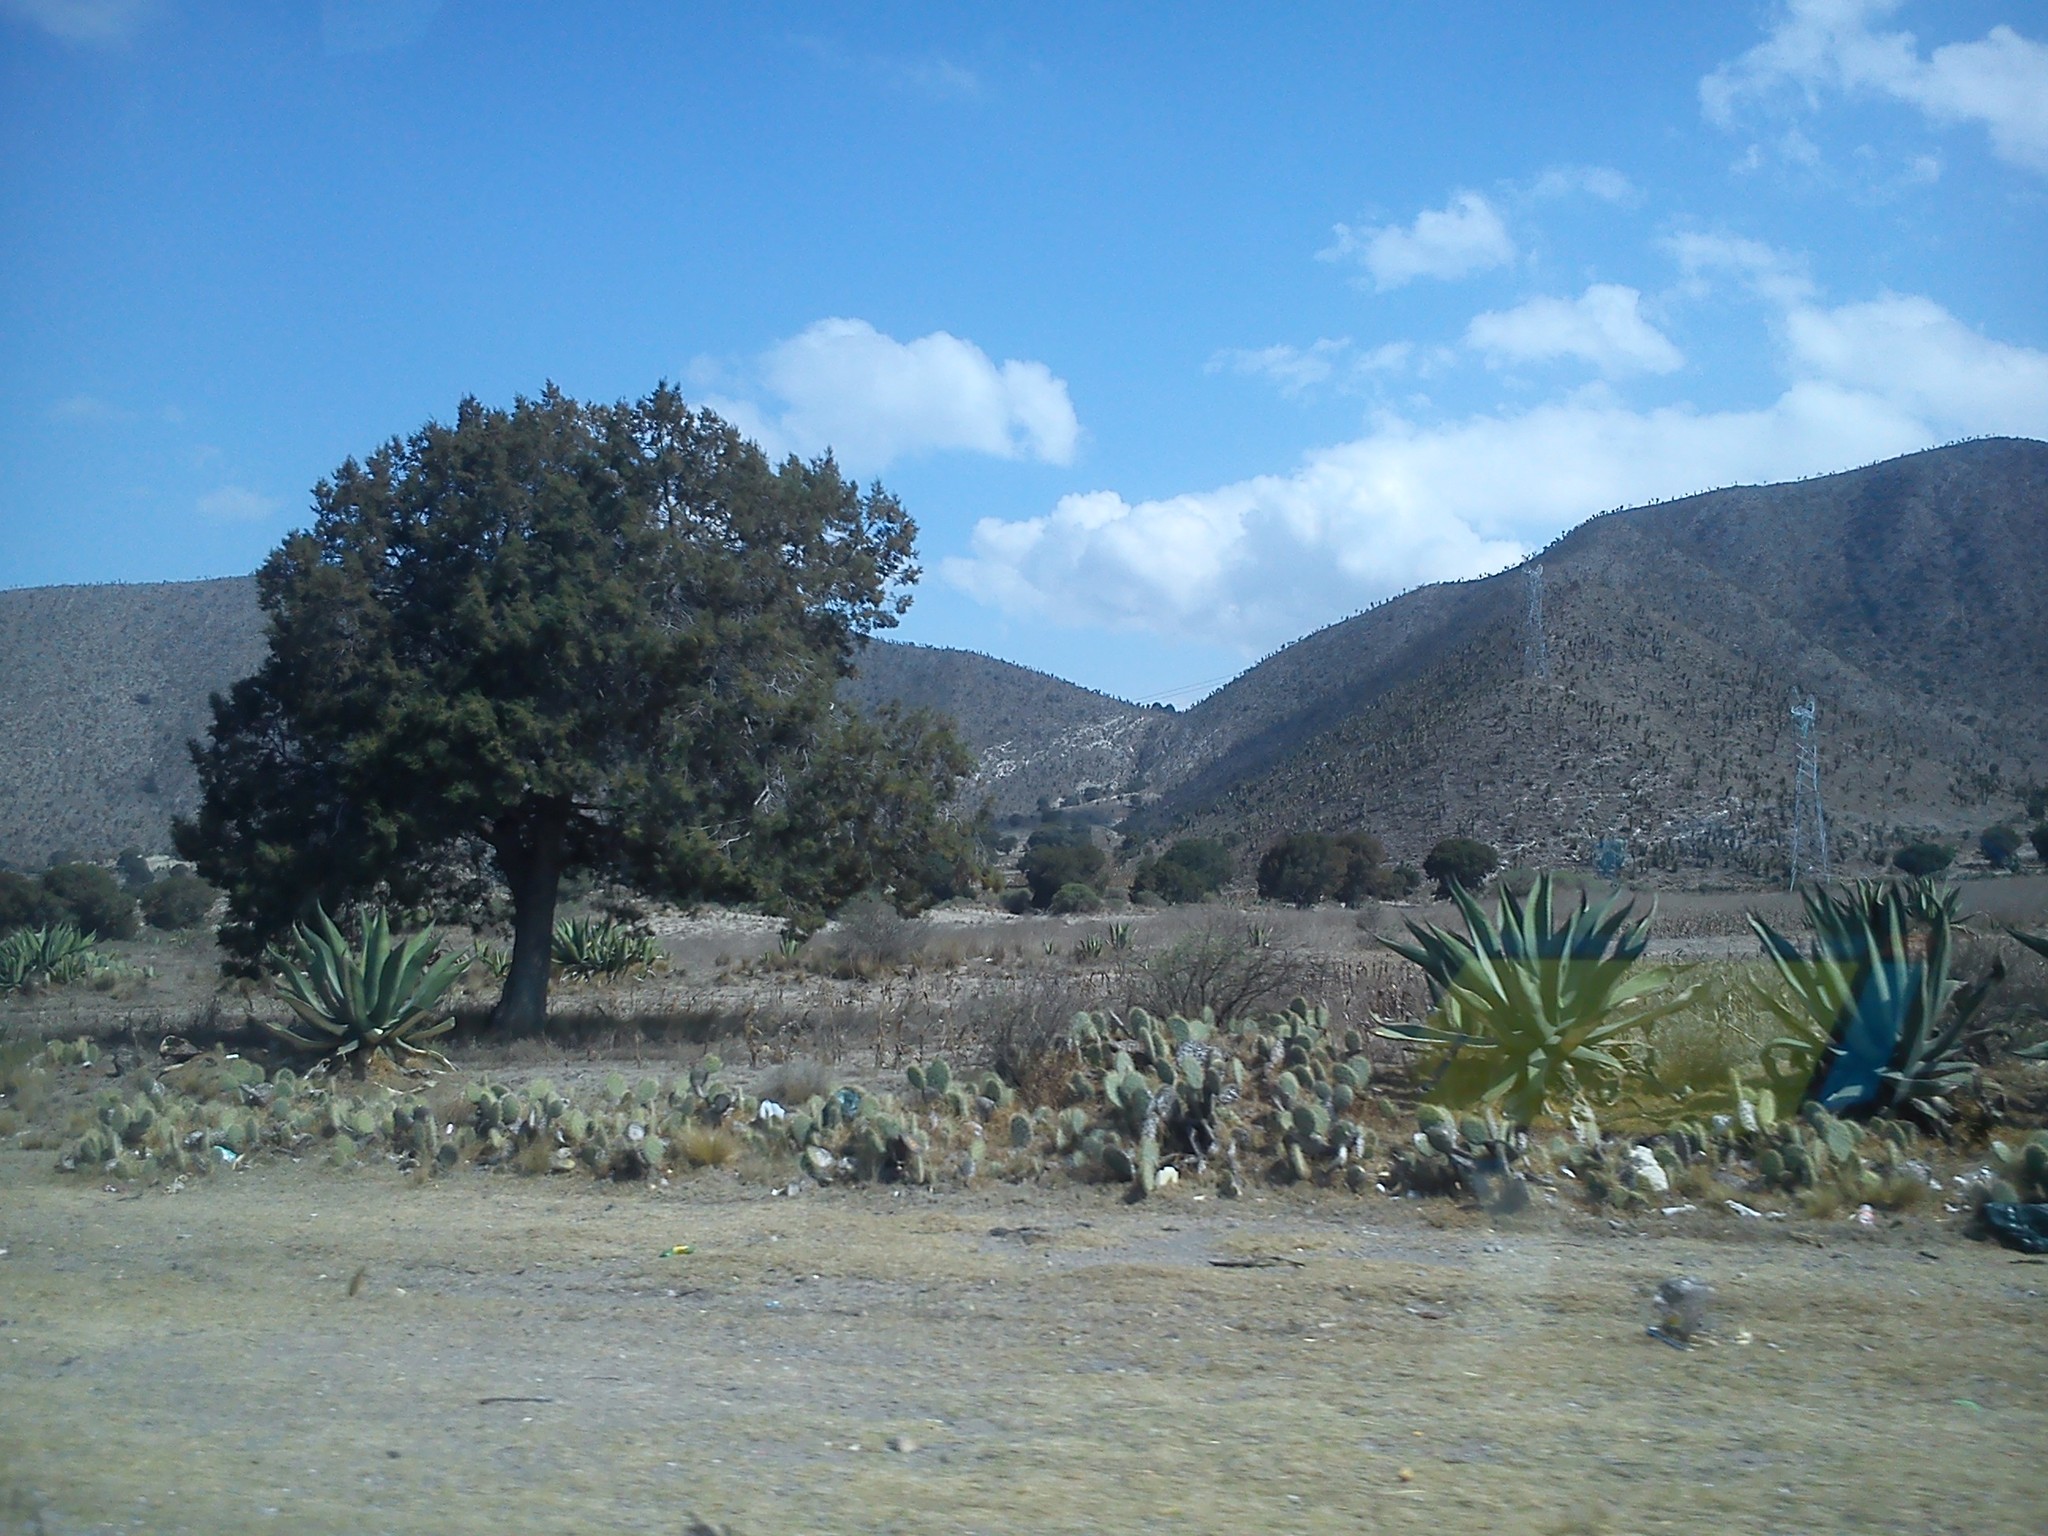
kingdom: Plantae
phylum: Tracheophyta
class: Pinopsida
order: Pinales
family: Cupressaceae
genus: Juniperus
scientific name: Juniperus deppeana
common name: Alligator juniper
